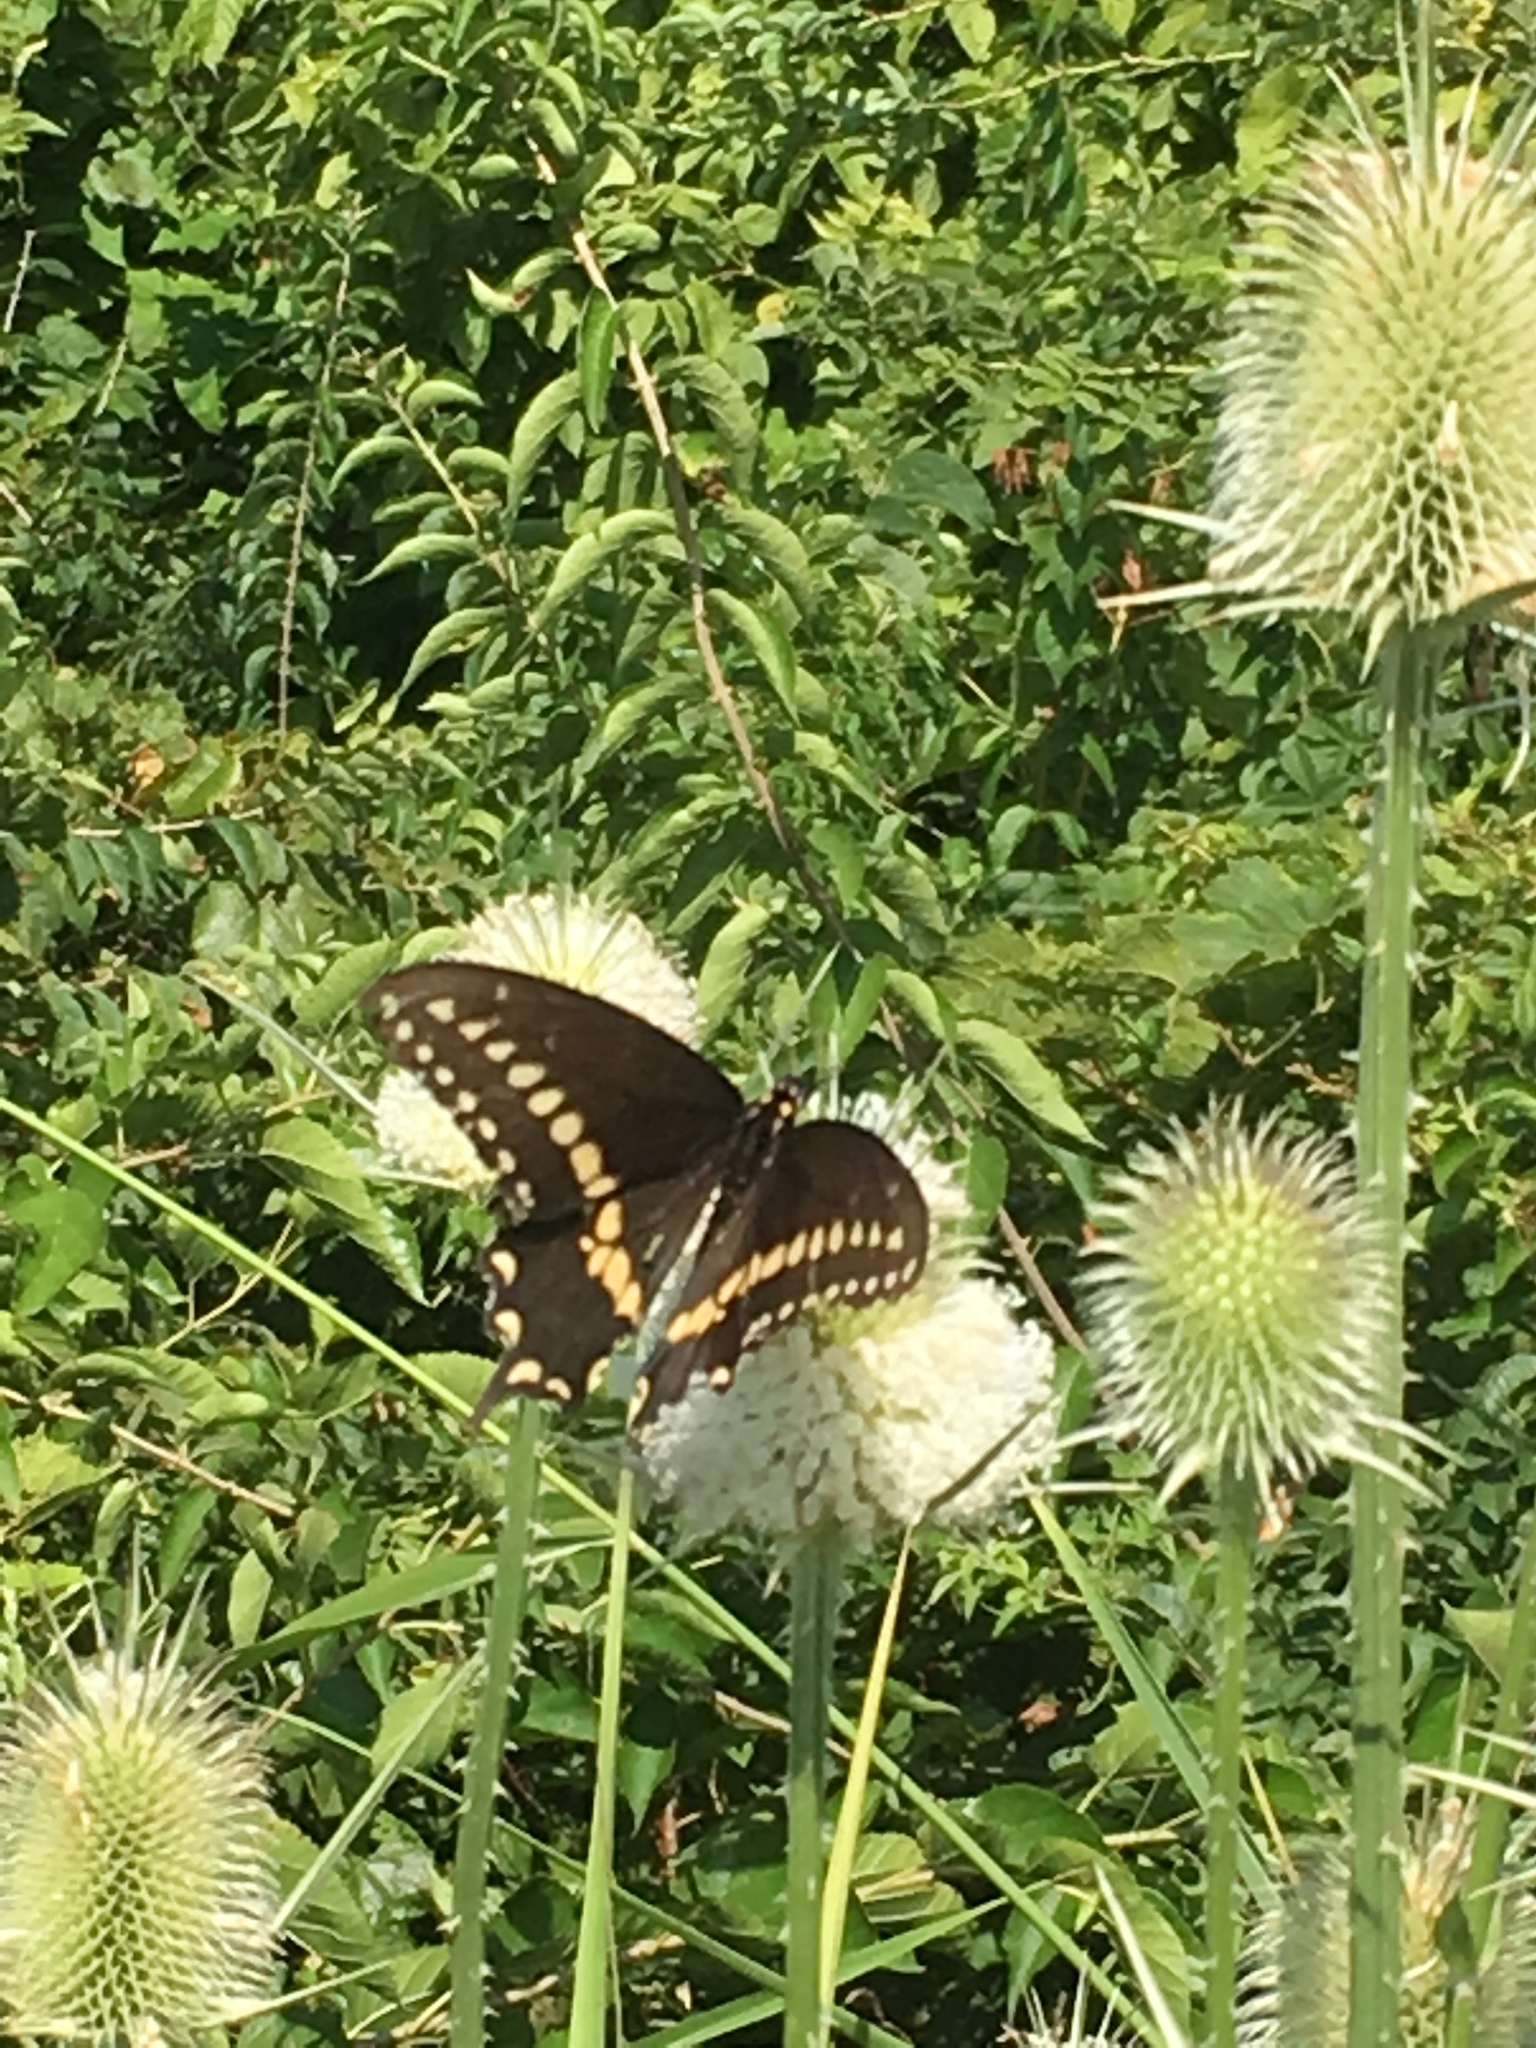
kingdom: Animalia
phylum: Arthropoda
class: Insecta
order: Lepidoptera
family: Papilionidae
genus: Papilio
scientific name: Papilio polyxenes
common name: Black swallowtail
